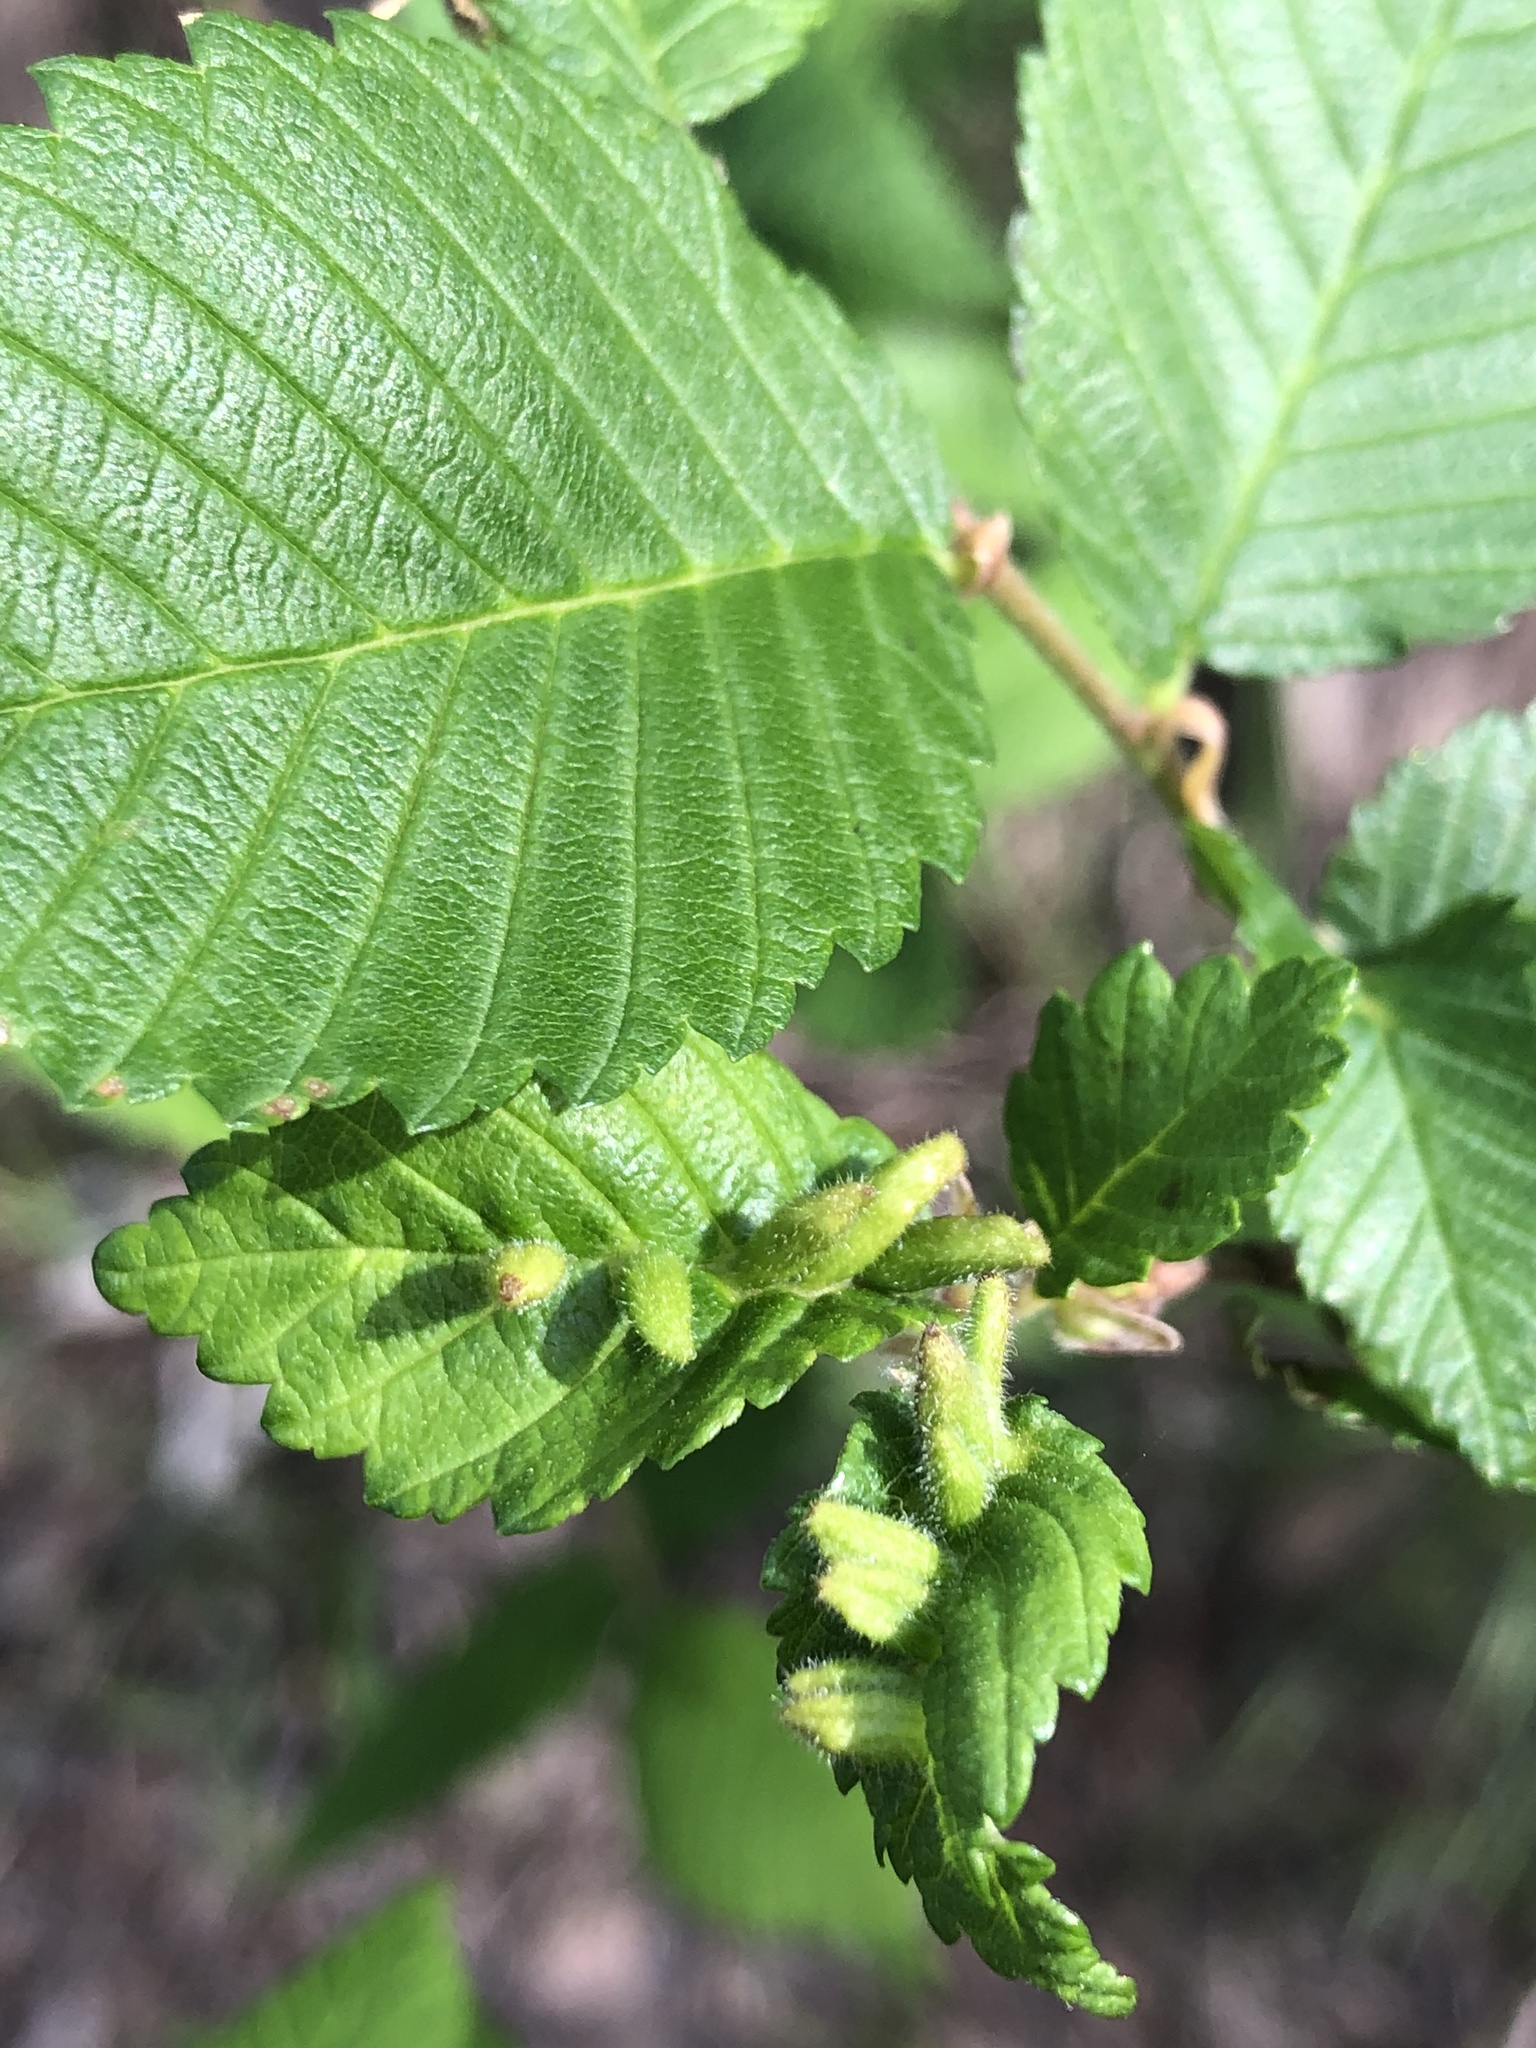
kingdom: Animalia
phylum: Arthropoda
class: Arachnida
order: Trombidiformes
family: Eriophyidae
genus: Aceria
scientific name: Aceria
